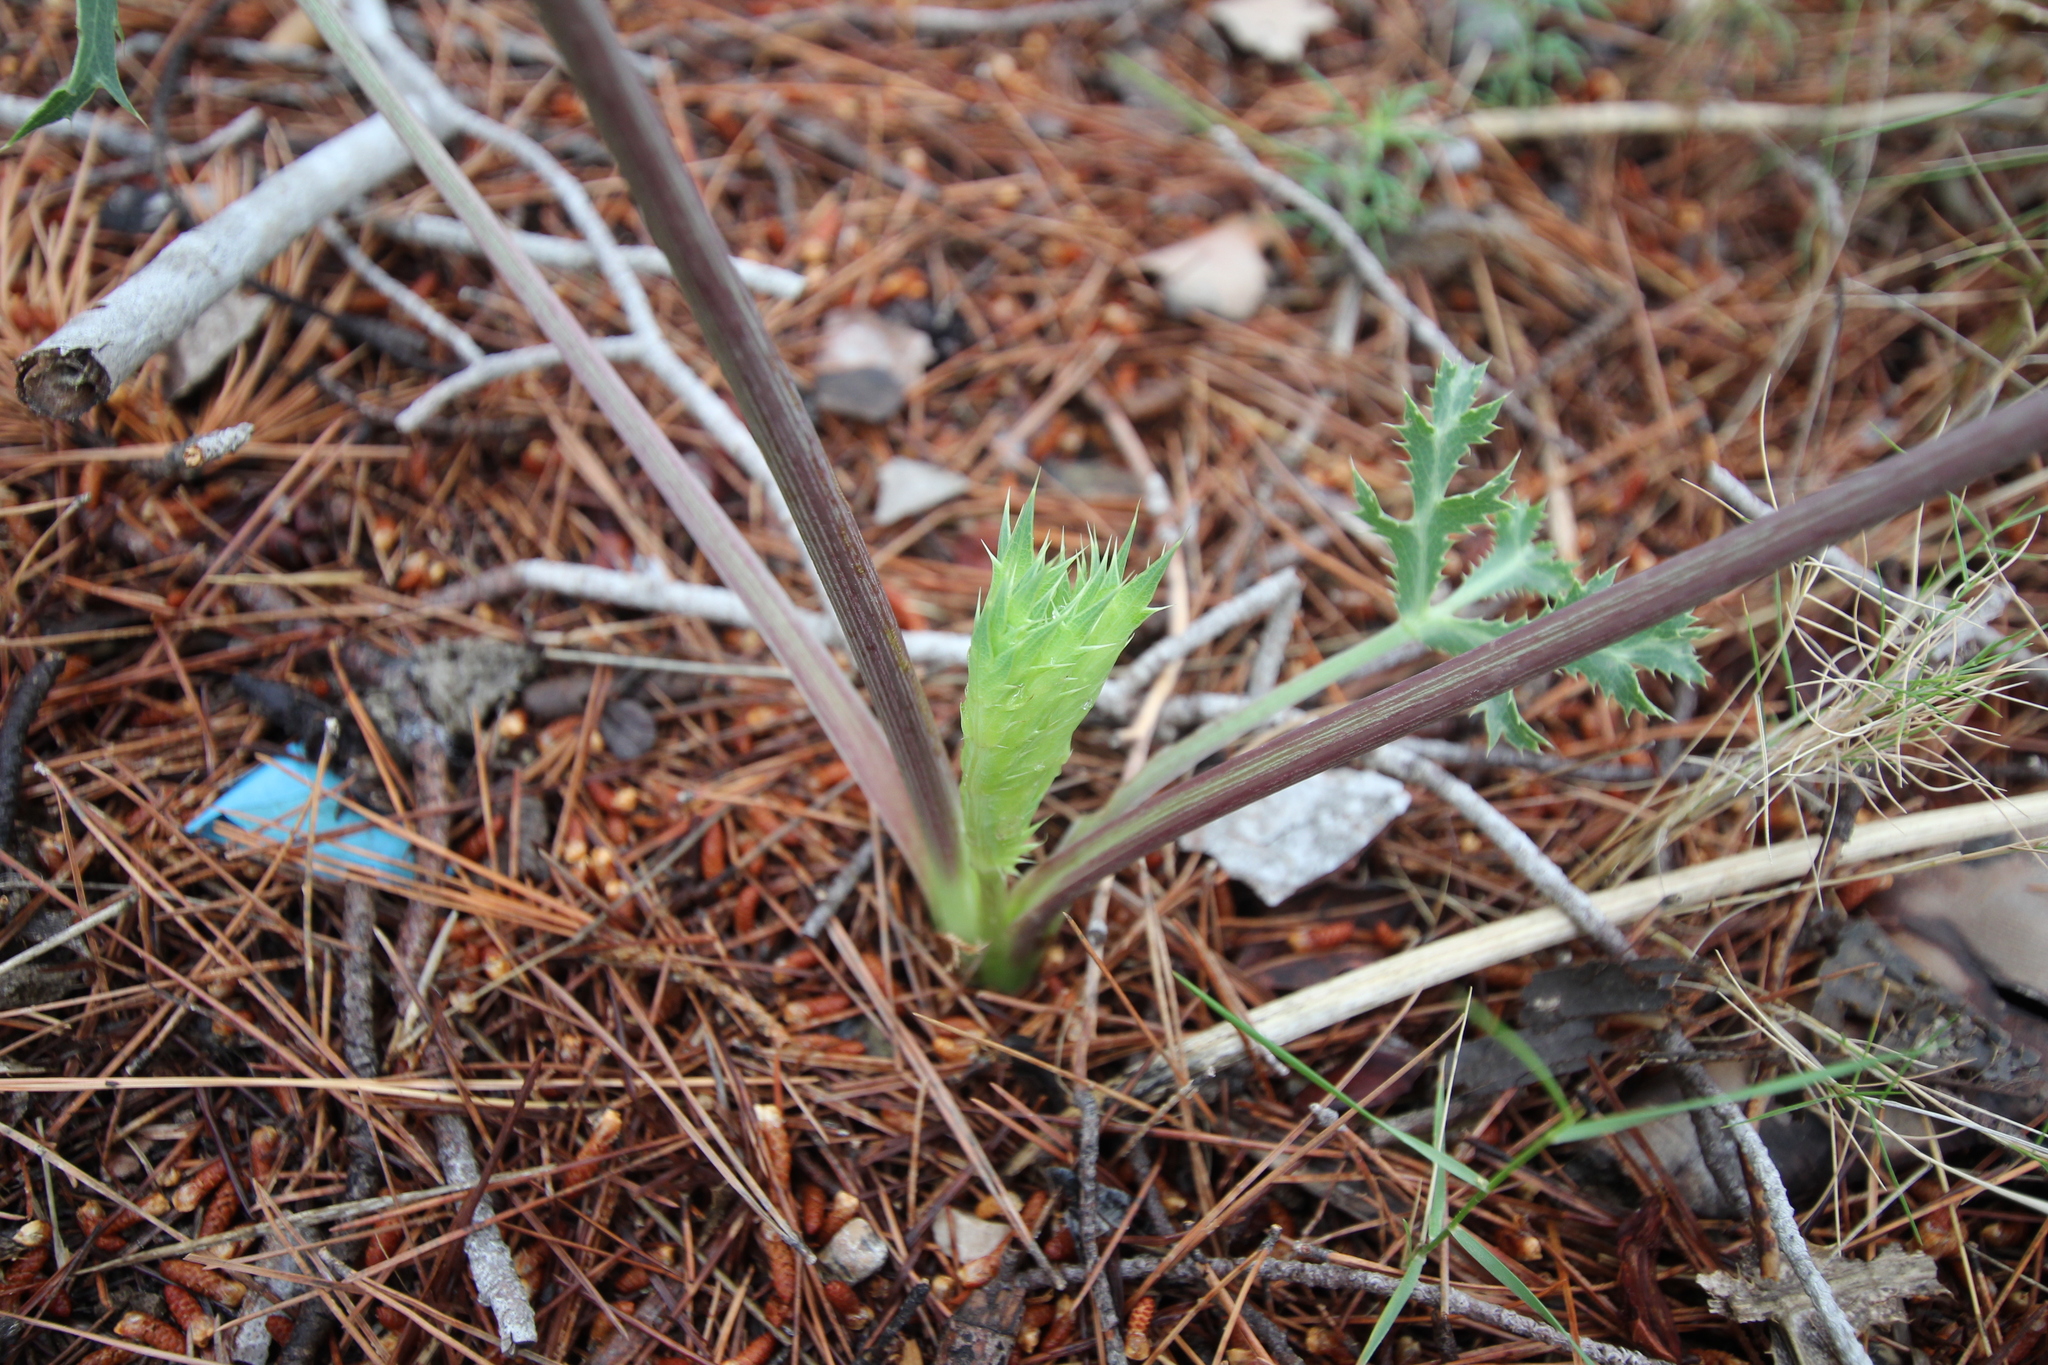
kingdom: Plantae
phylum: Tracheophyta
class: Magnoliopsida
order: Apiales
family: Apiaceae
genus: Eryngium
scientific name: Eryngium campestre
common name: Field eryngo
